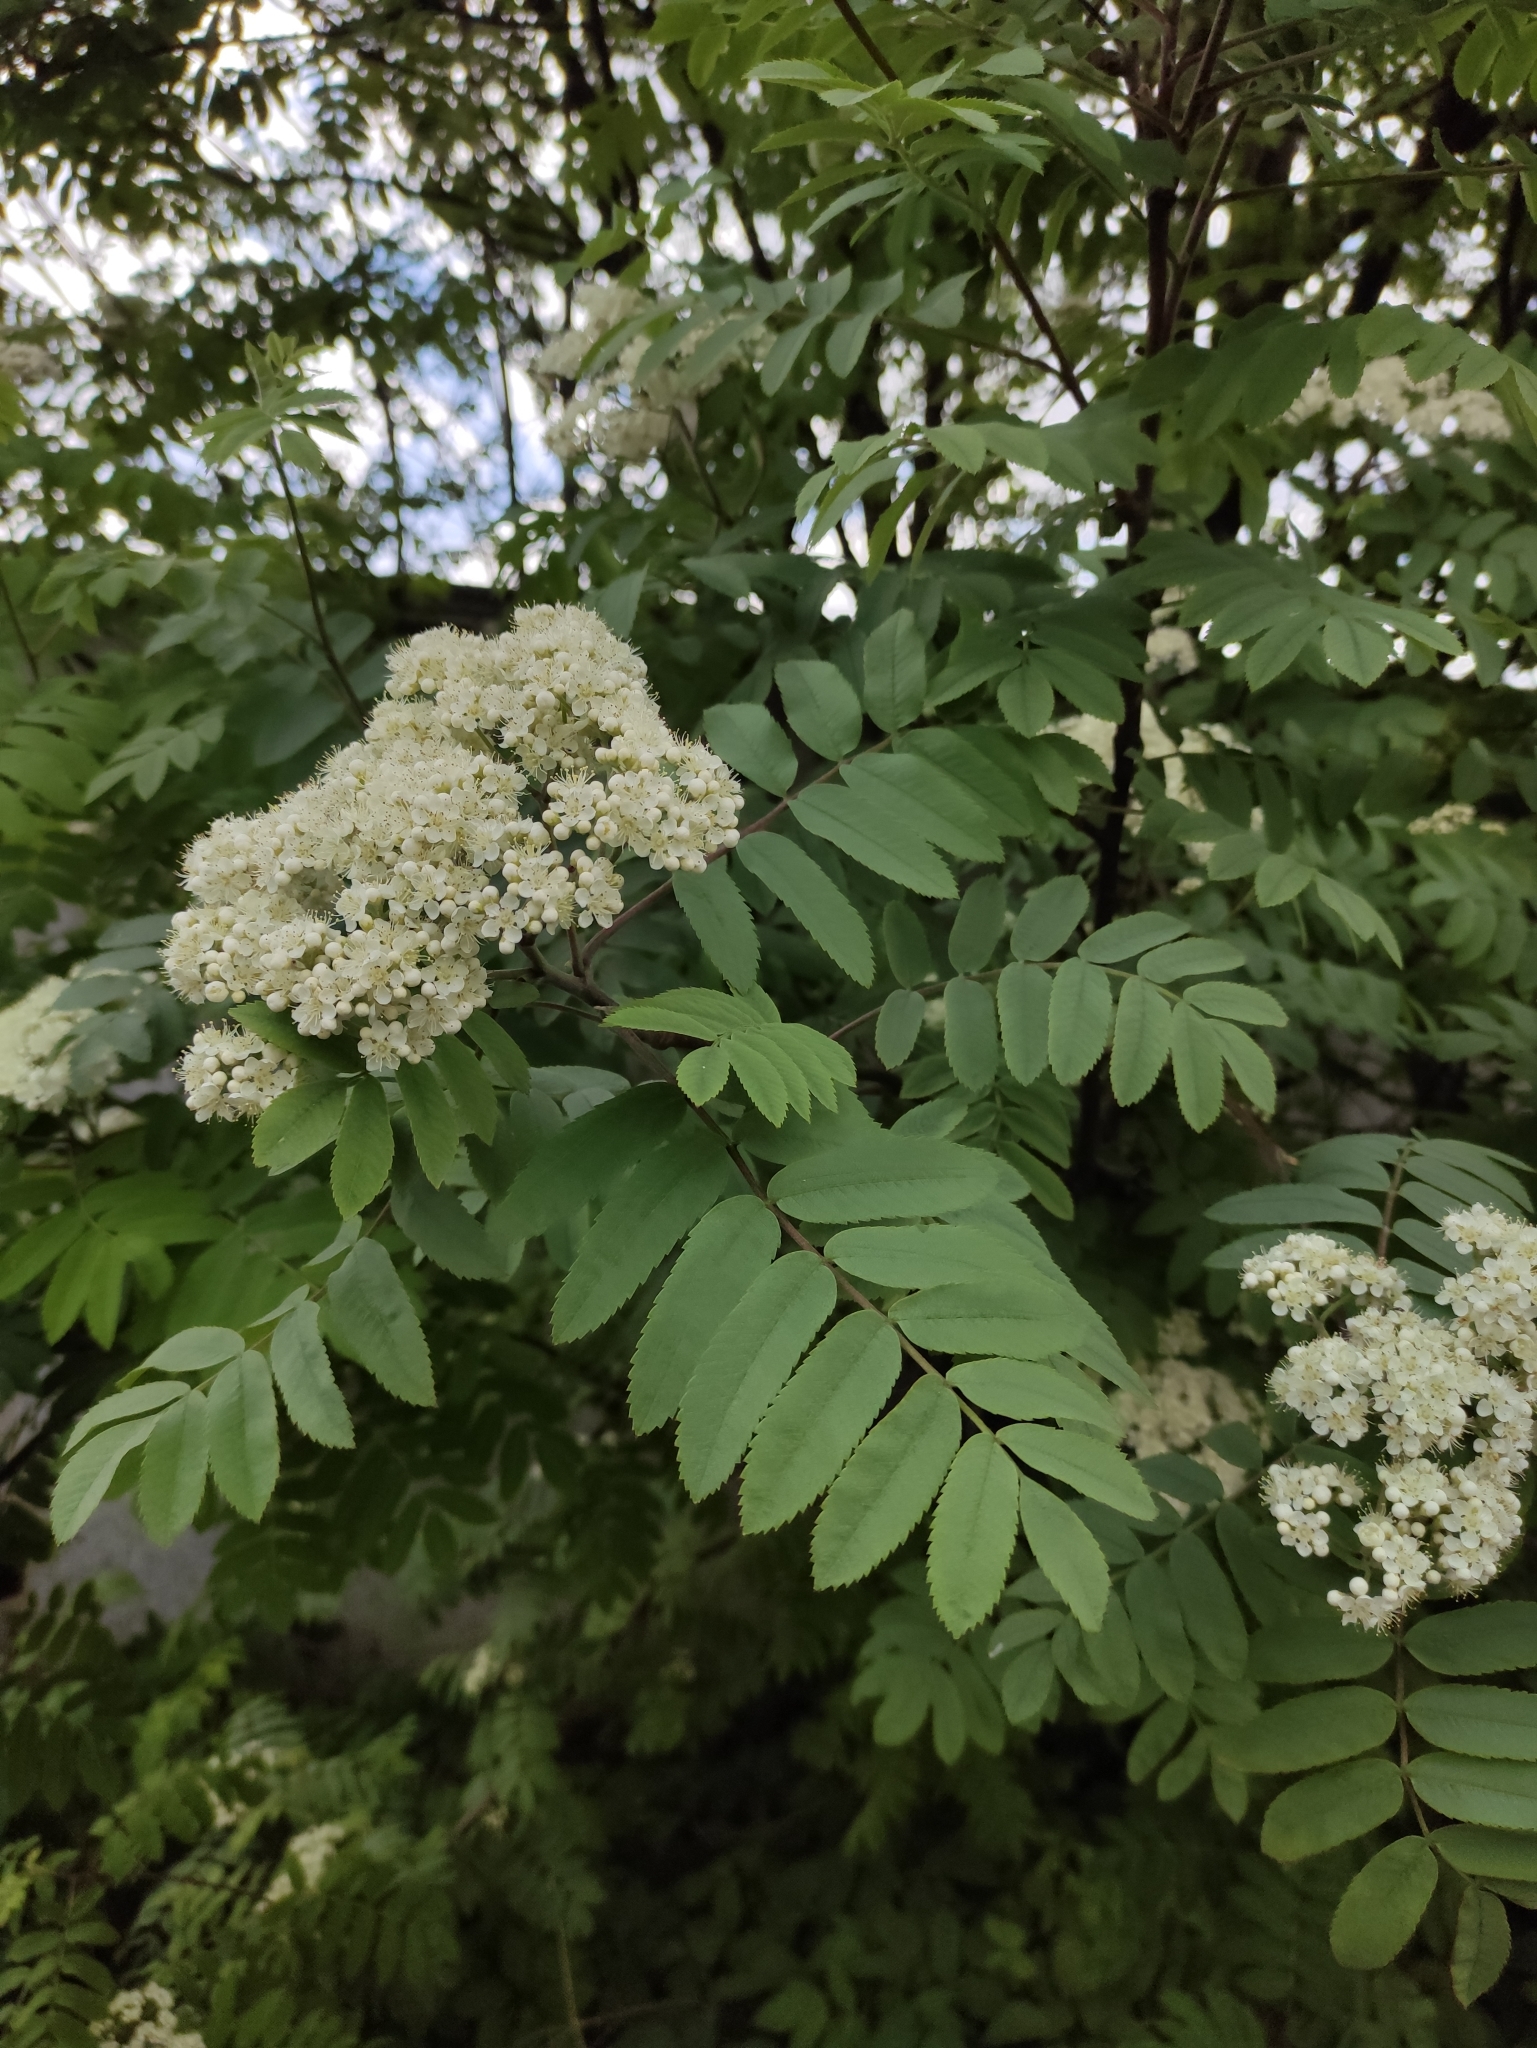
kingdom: Plantae
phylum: Tracheophyta
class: Magnoliopsida
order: Rosales
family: Rosaceae
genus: Sorbus
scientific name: Sorbus aucuparia
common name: Rowan
